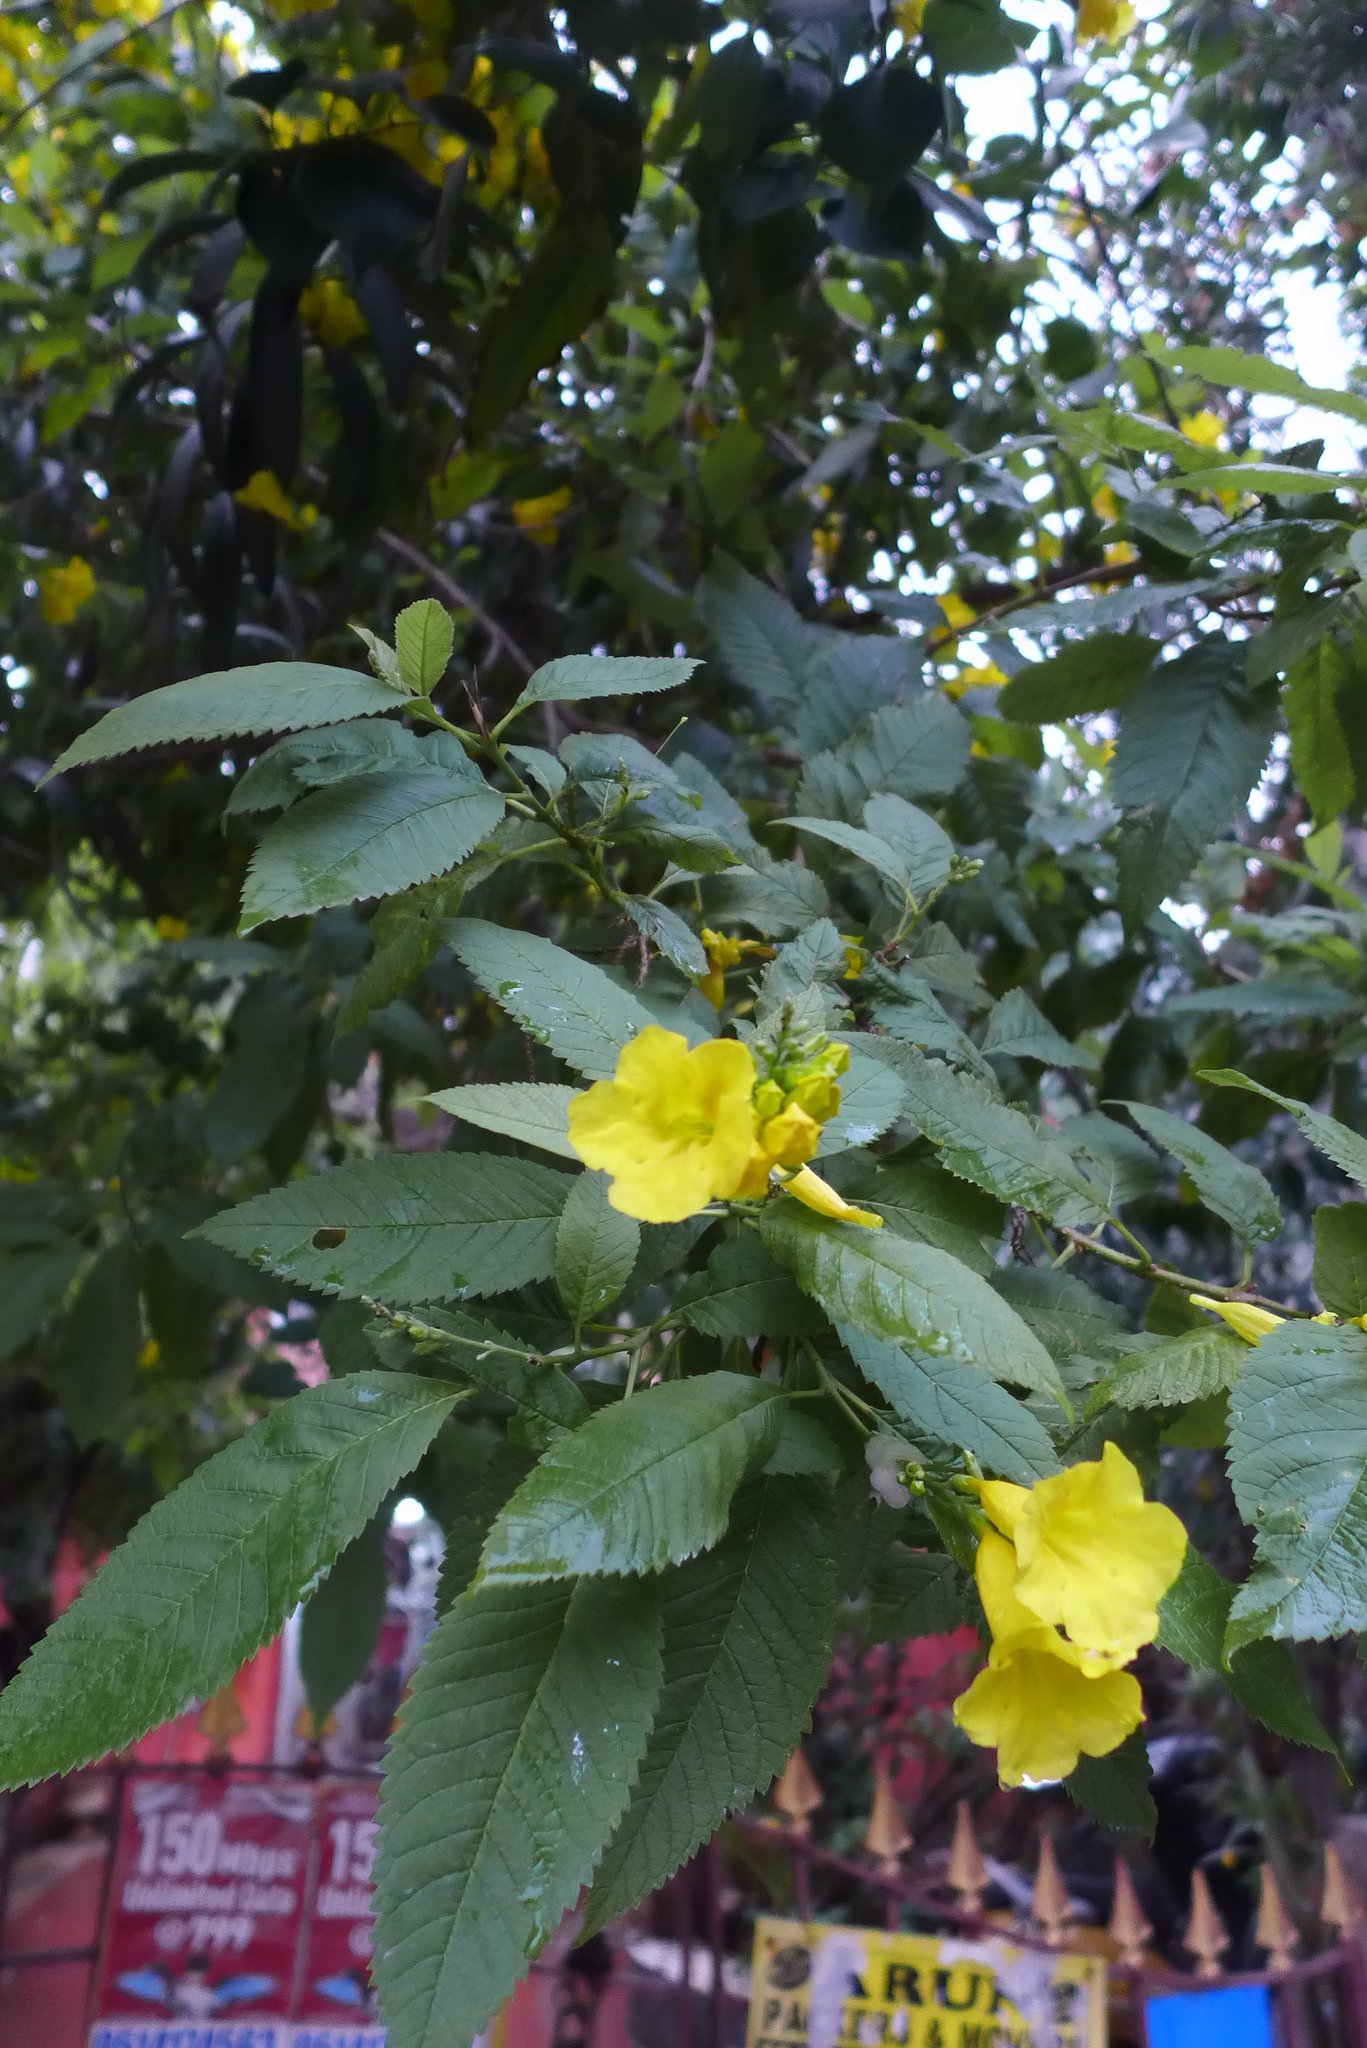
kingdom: Plantae
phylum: Tracheophyta
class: Magnoliopsida
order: Lamiales
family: Bignoniaceae
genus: Tecoma
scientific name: Tecoma stans
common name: Yellow trumpetbush
